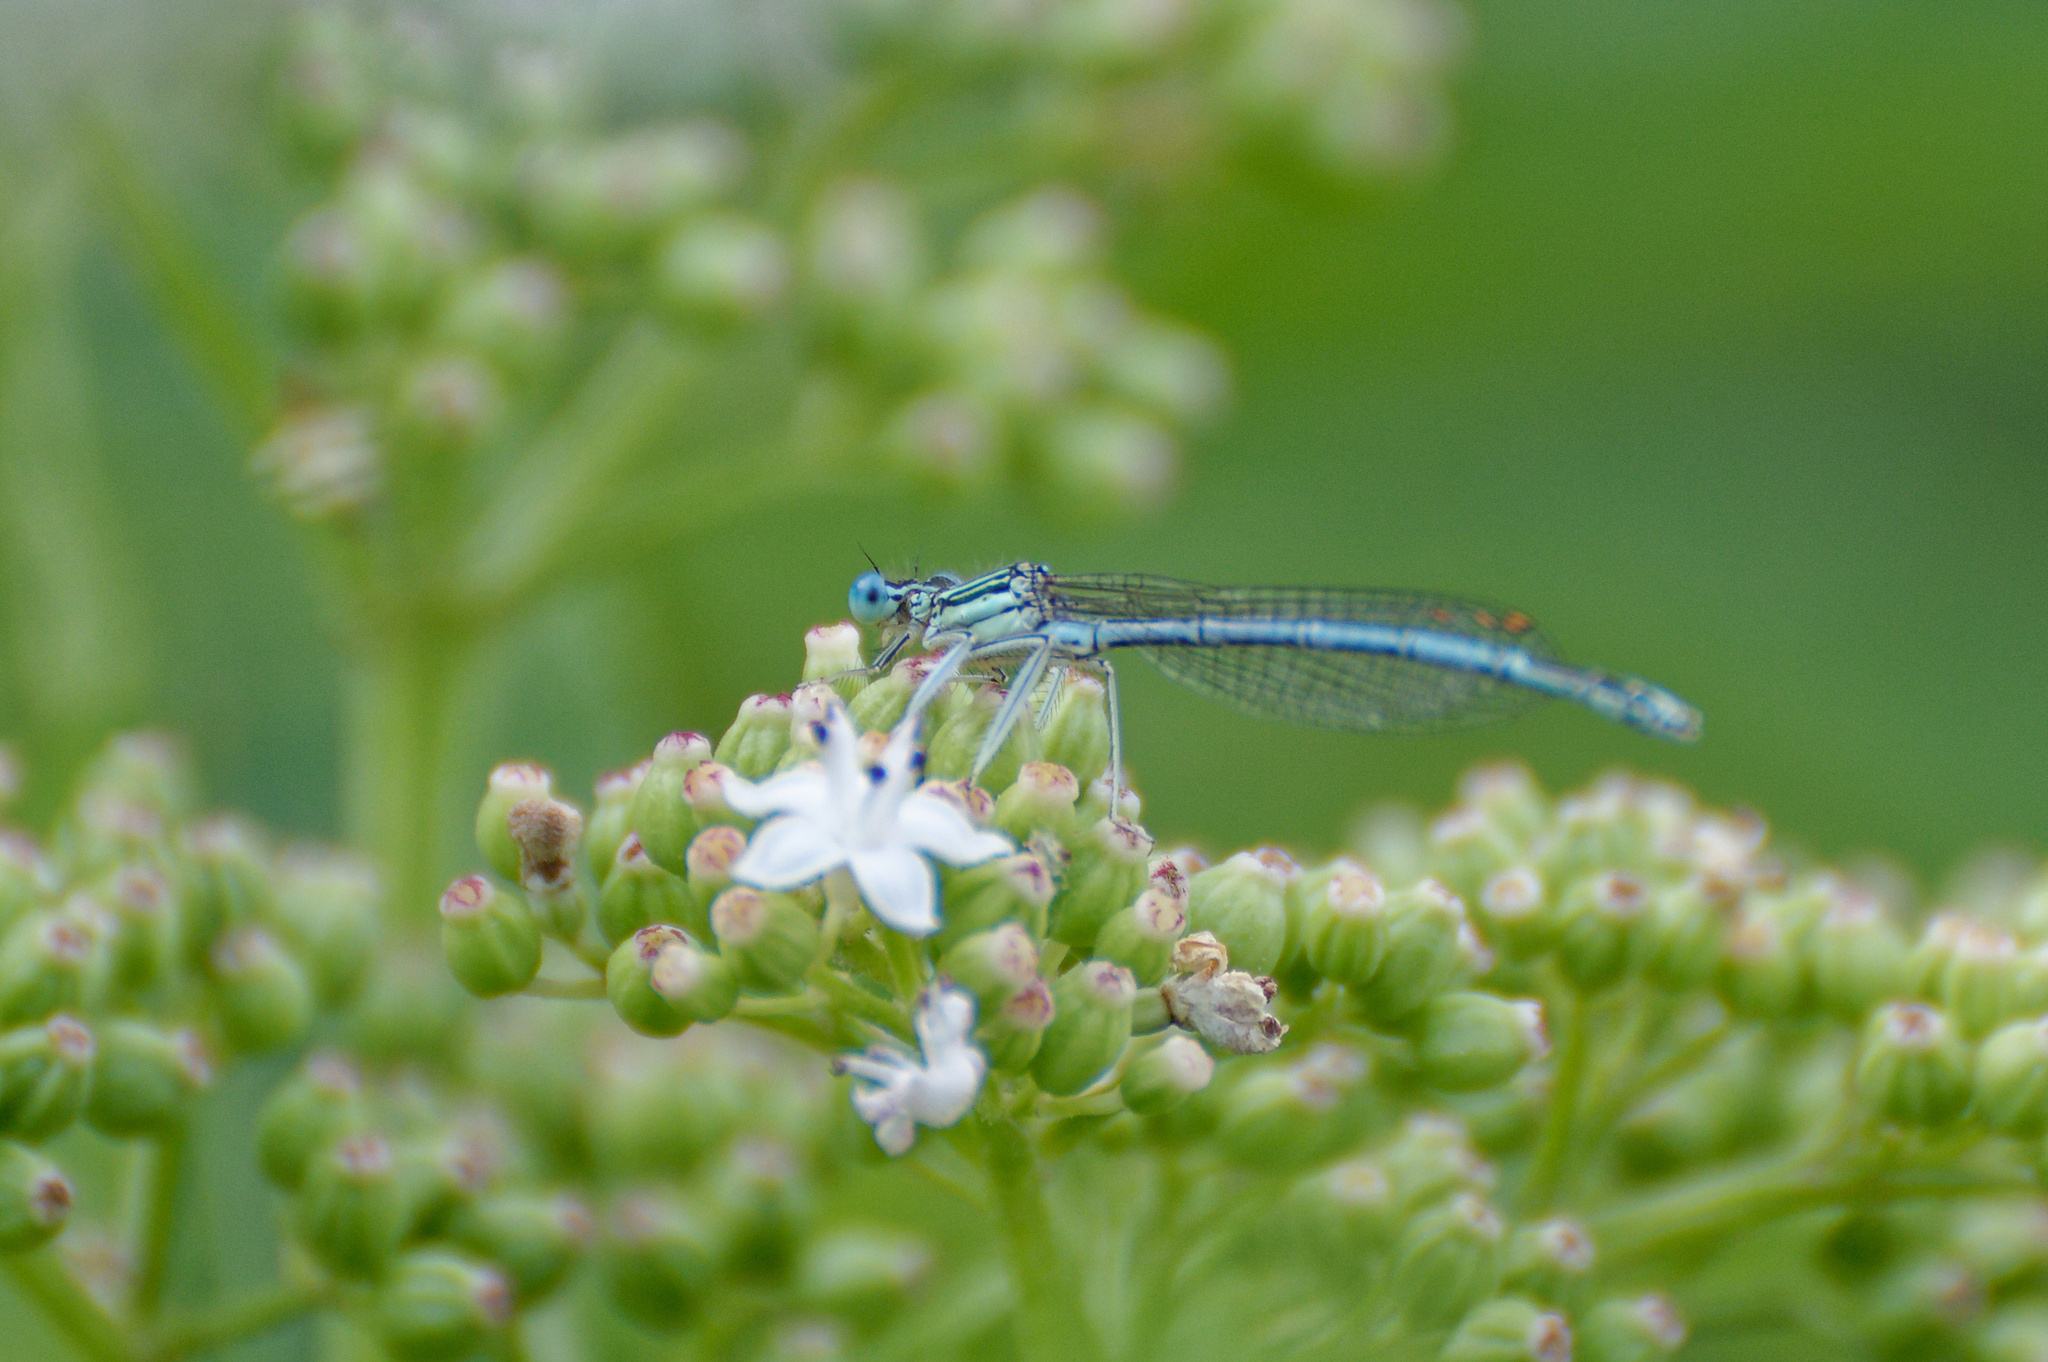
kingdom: Animalia
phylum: Arthropoda
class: Insecta
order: Odonata
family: Platycnemididae
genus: Platycnemis
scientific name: Platycnemis pennipes
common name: White-legged damselfly
